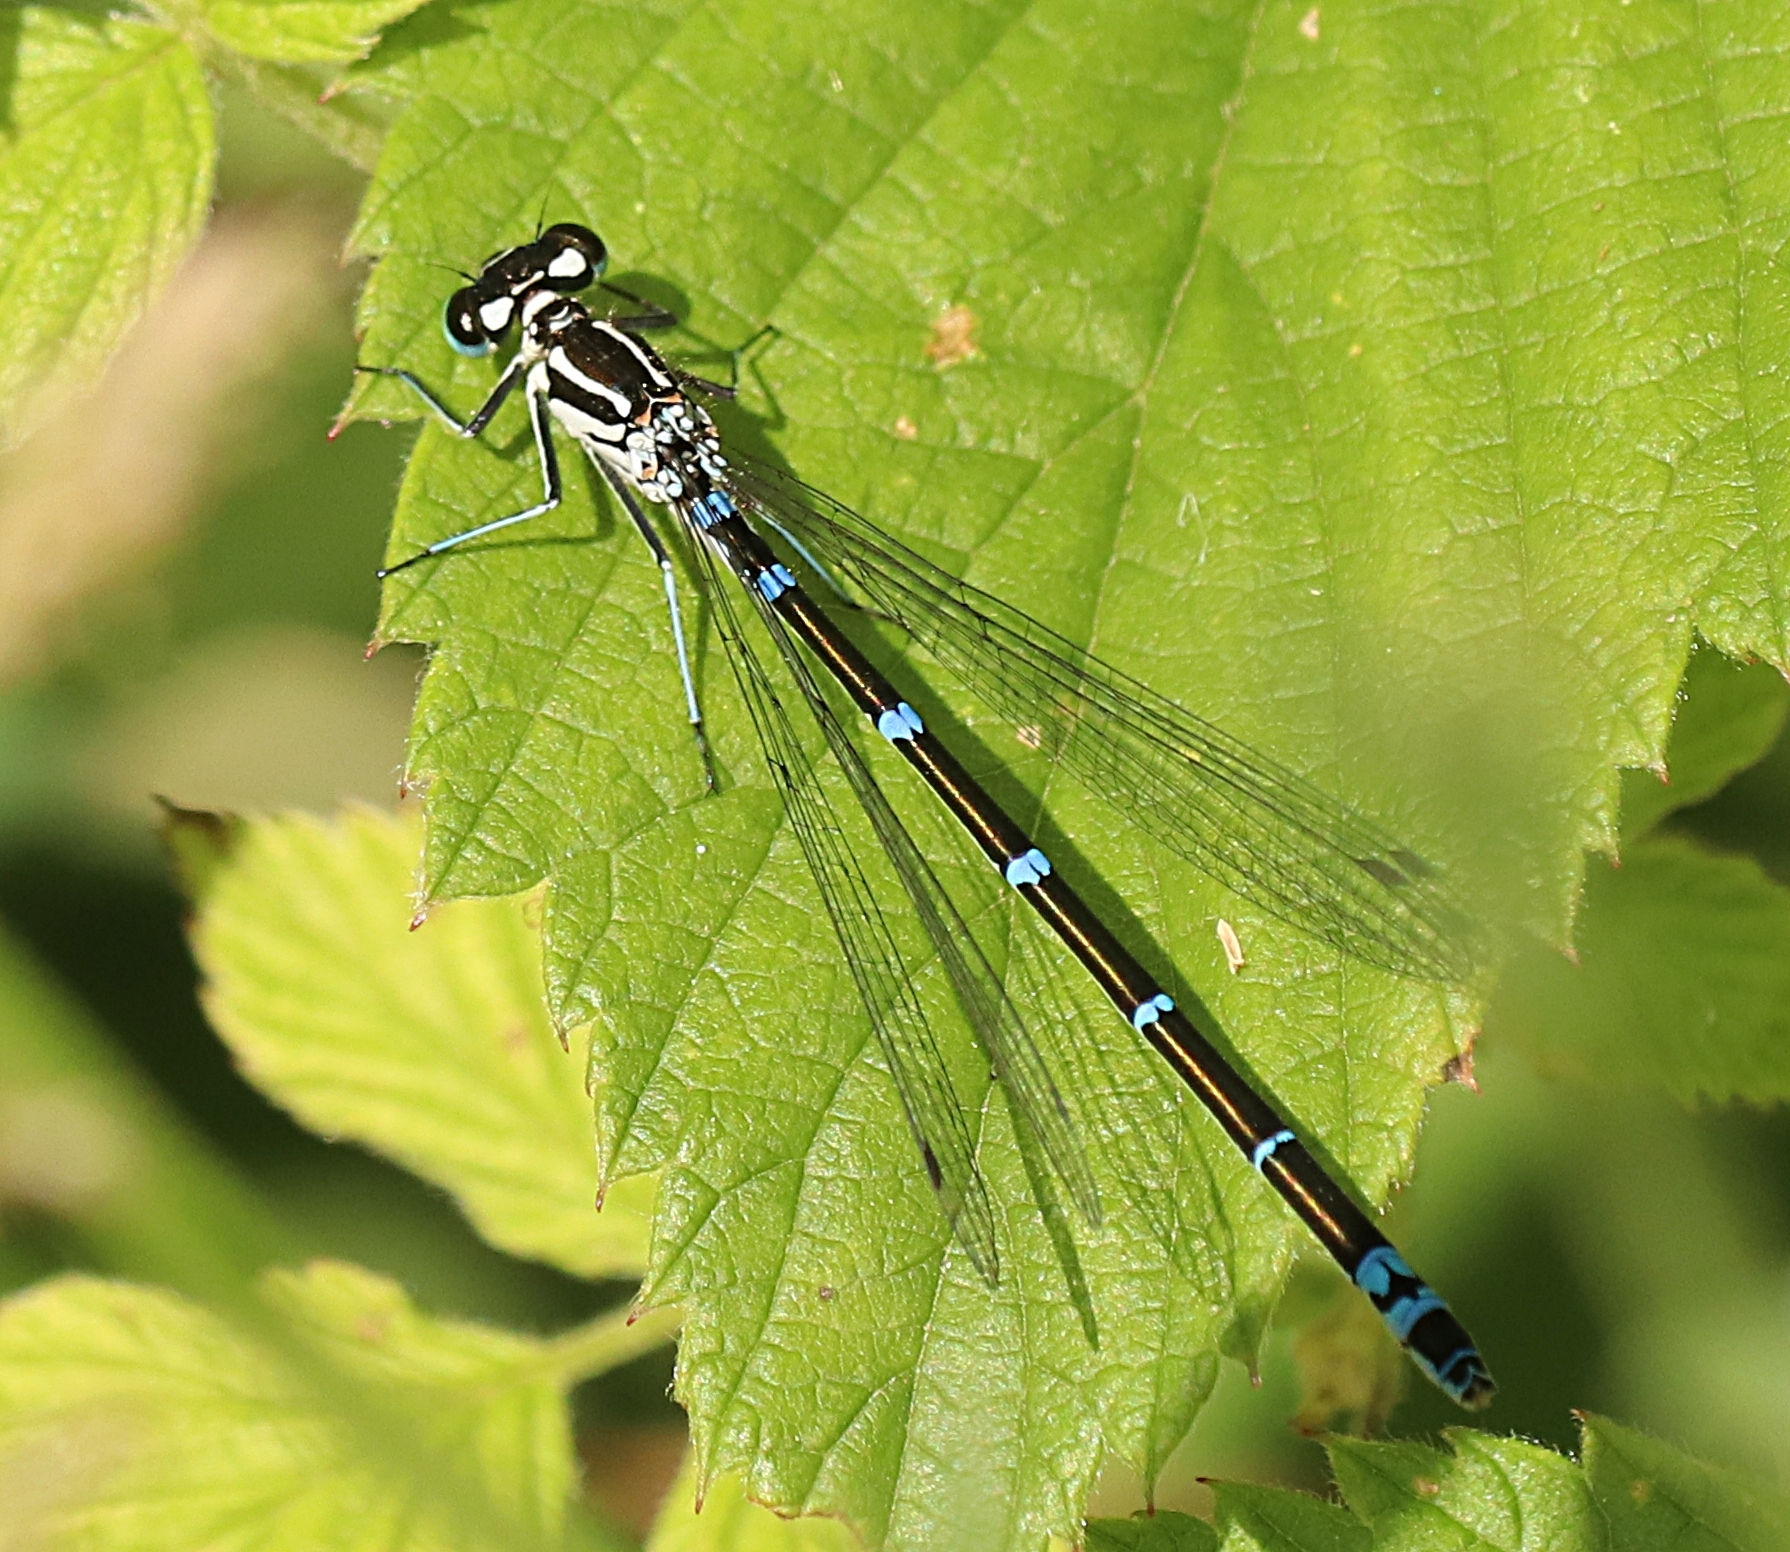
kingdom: Animalia
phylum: Arthropoda
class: Insecta
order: Odonata
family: Coenagrionidae
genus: Coenagrion
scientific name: Coenagrion pulchellum
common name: Variable bluet
